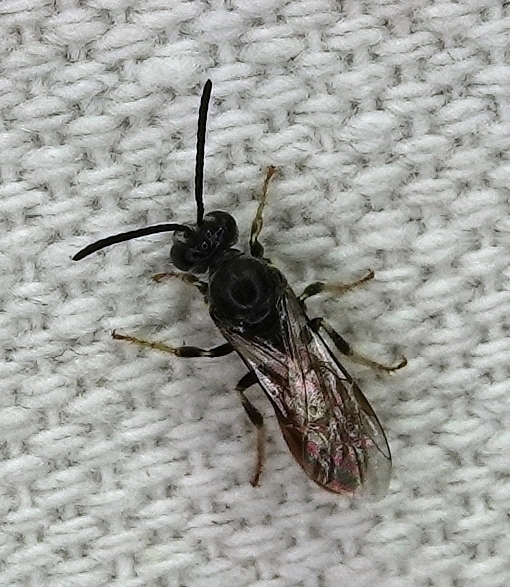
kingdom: Animalia
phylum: Arthropoda
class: Insecta
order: Hymenoptera
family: Halictidae
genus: Lasioglossum
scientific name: Lasioglossum texanum
